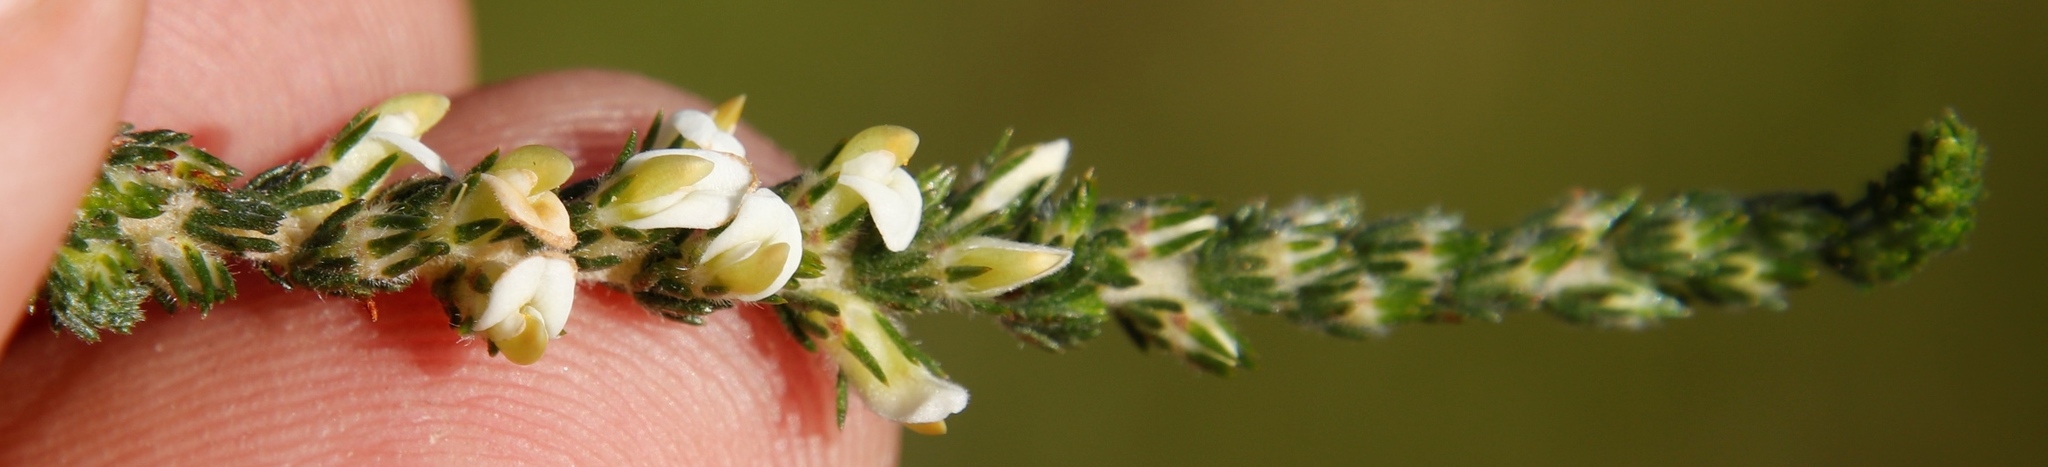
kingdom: Plantae
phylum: Tracheophyta
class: Magnoliopsida
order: Fabales
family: Fabaceae
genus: Aspalathus
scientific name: Aspalathus hispida
